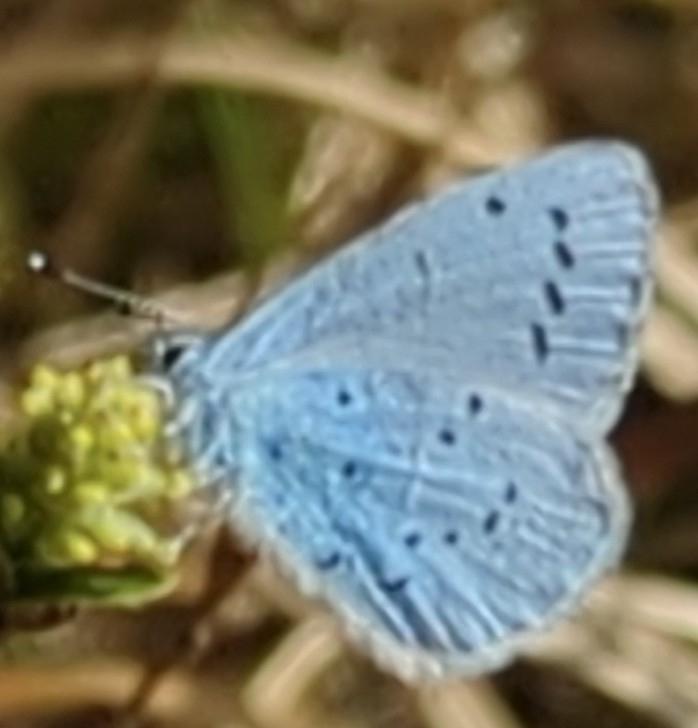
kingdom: Animalia
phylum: Arthropoda
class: Insecta
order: Lepidoptera
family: Lycaenidae
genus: Celastrina
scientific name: Celastrina argiolus
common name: Holly blue
